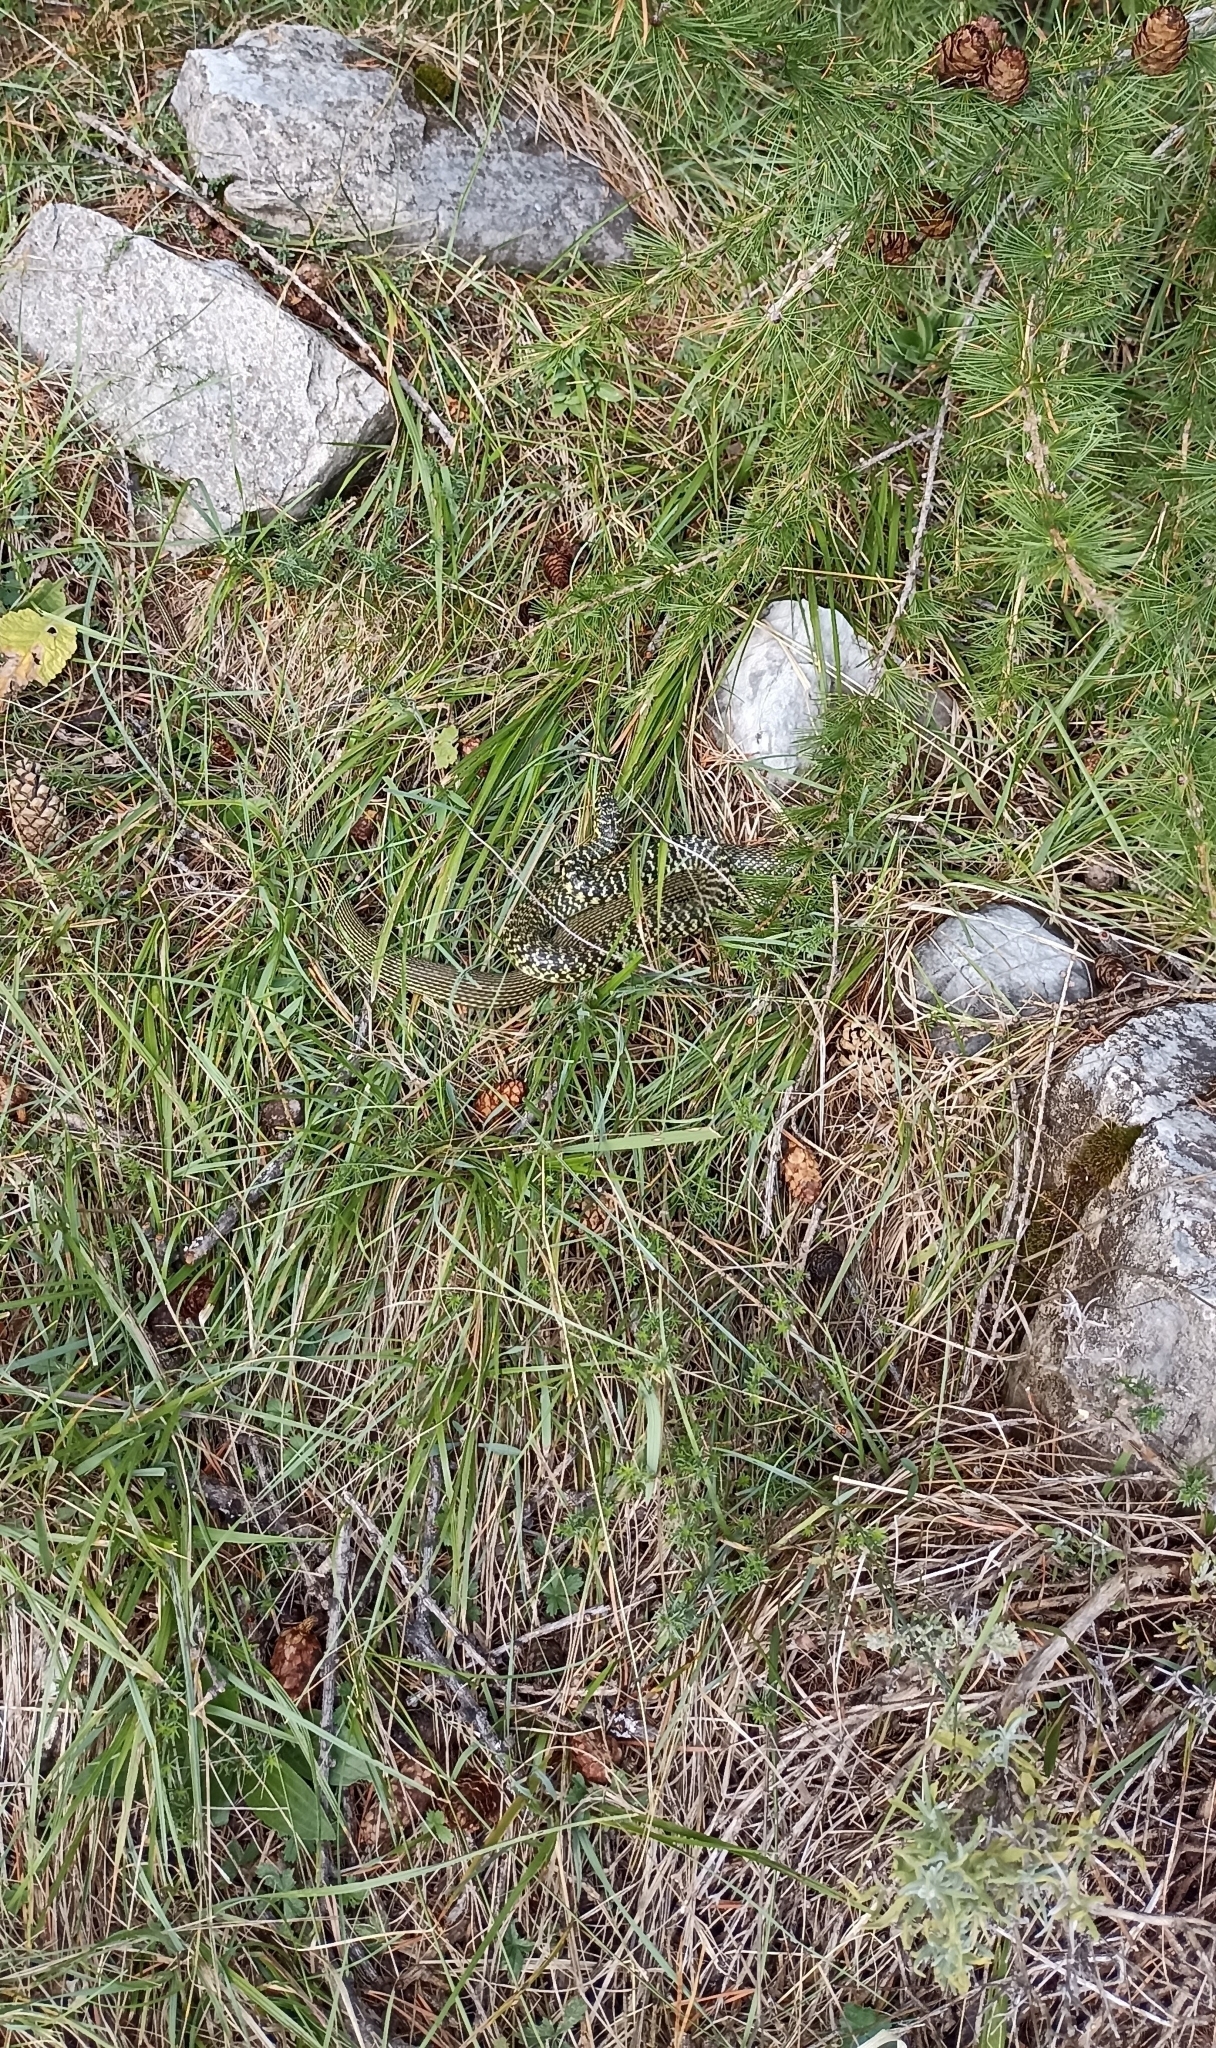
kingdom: Animalia
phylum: Chordata
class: Squamata
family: Colubridae
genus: Hierophis
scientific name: Hierophis viridiflavus
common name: Green whip snake
